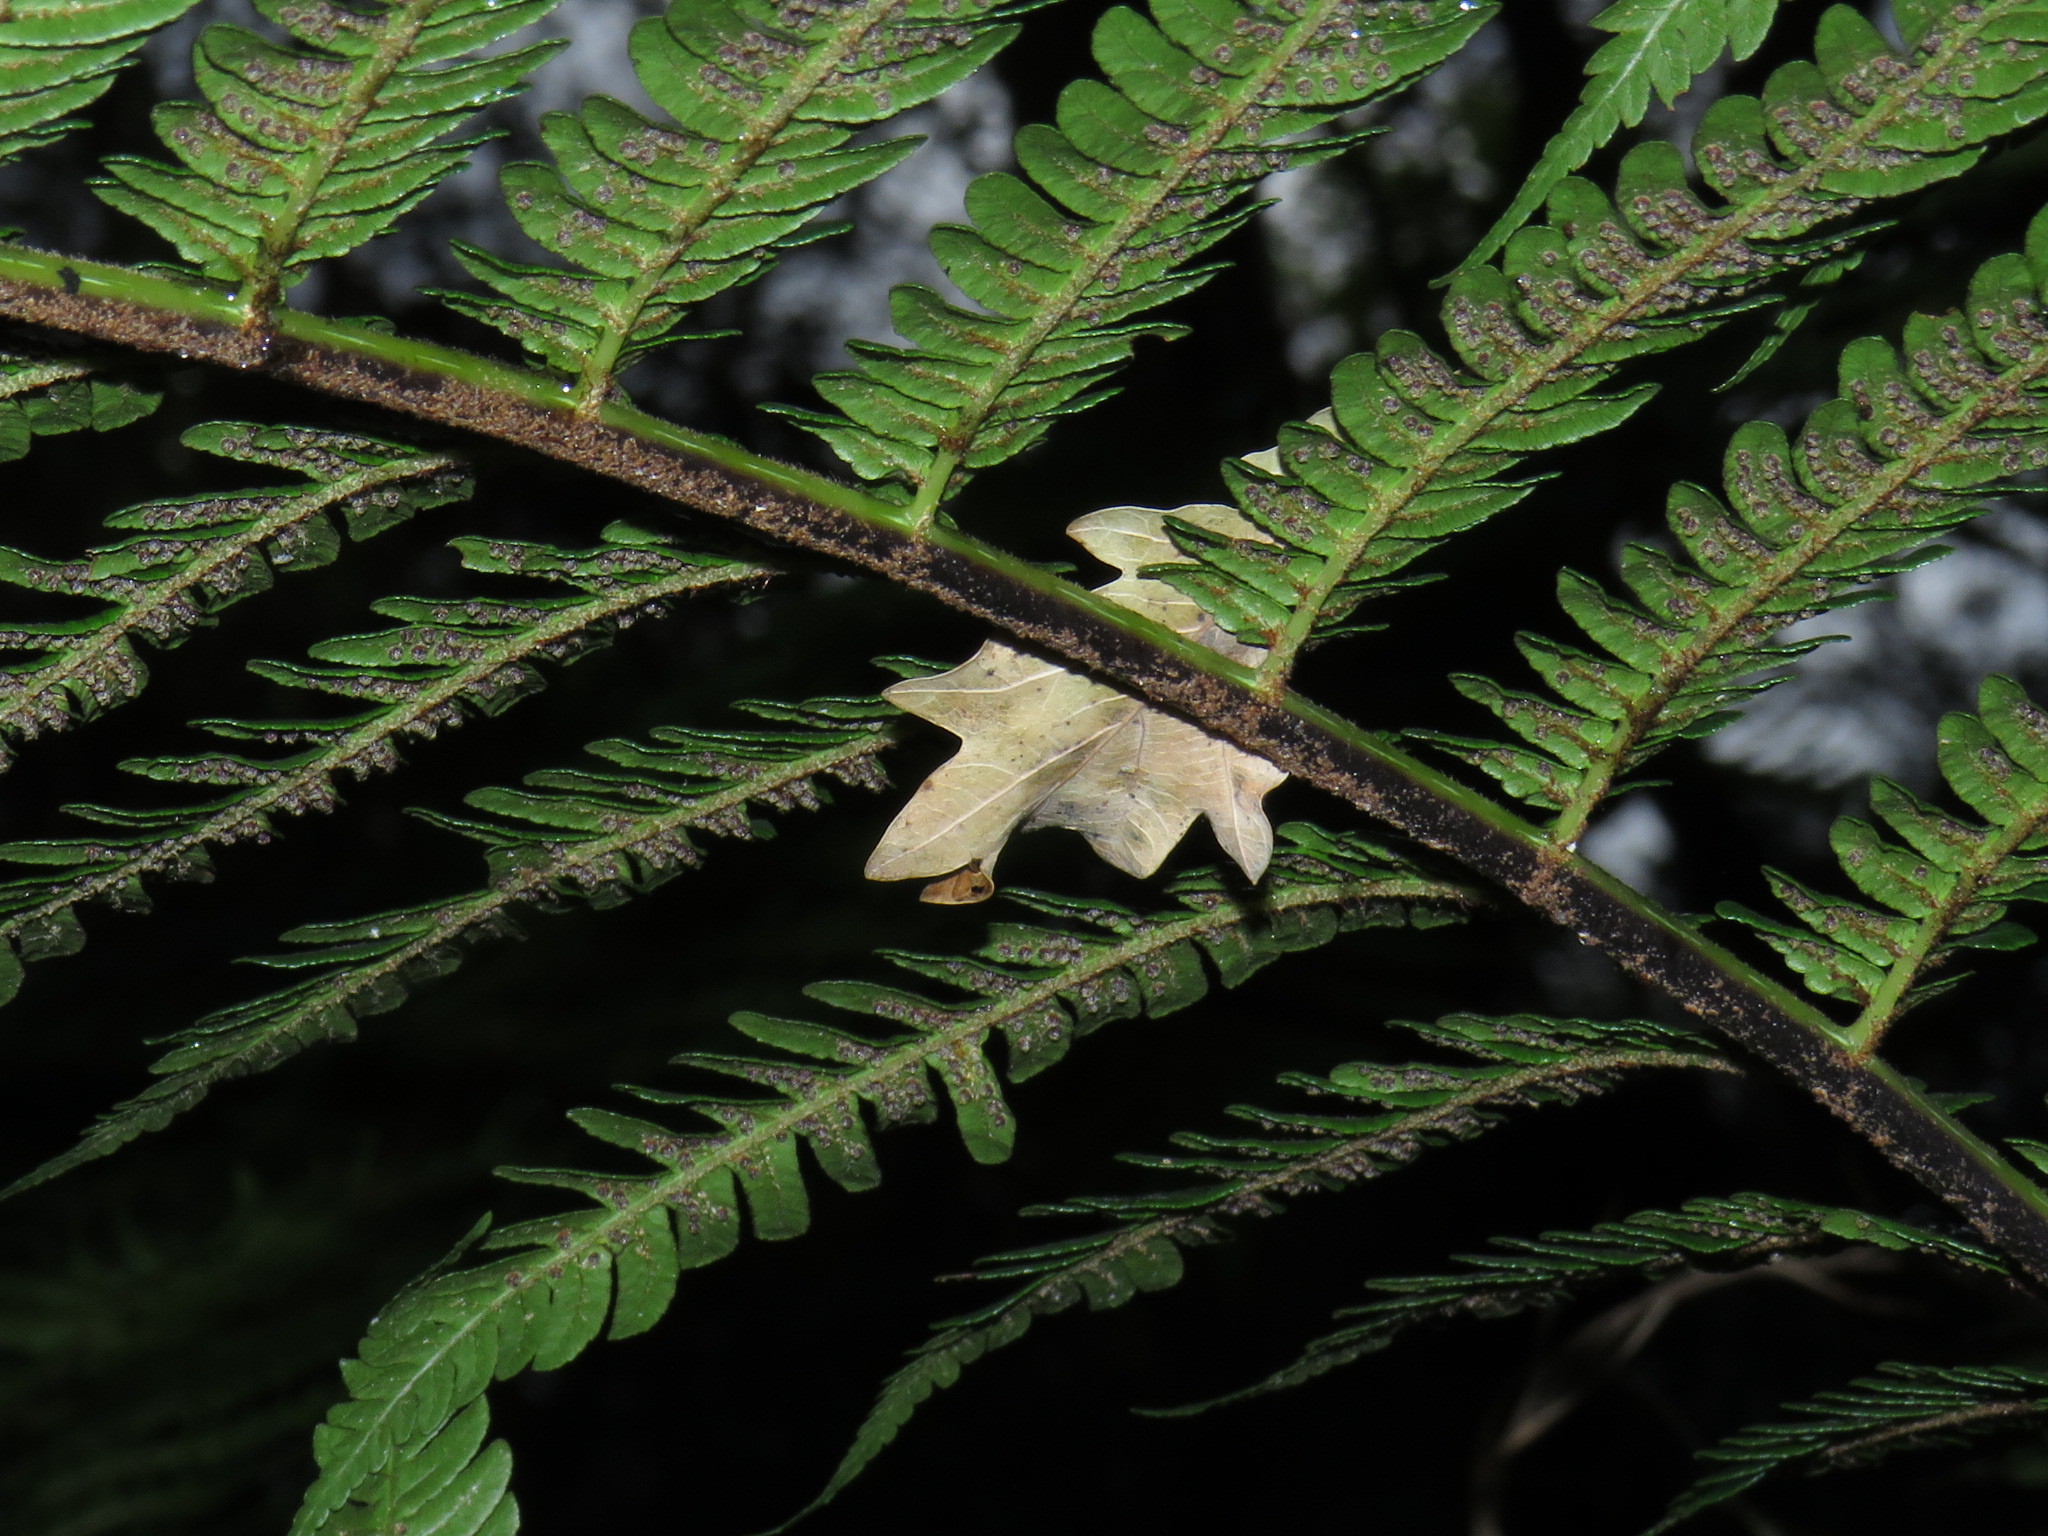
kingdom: Plantae
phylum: Tracheophyta
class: Polypodiopsida
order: Cyatheales
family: Cyatheaceae
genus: Sphaeropteris
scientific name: Sphaeropteris cooperi
